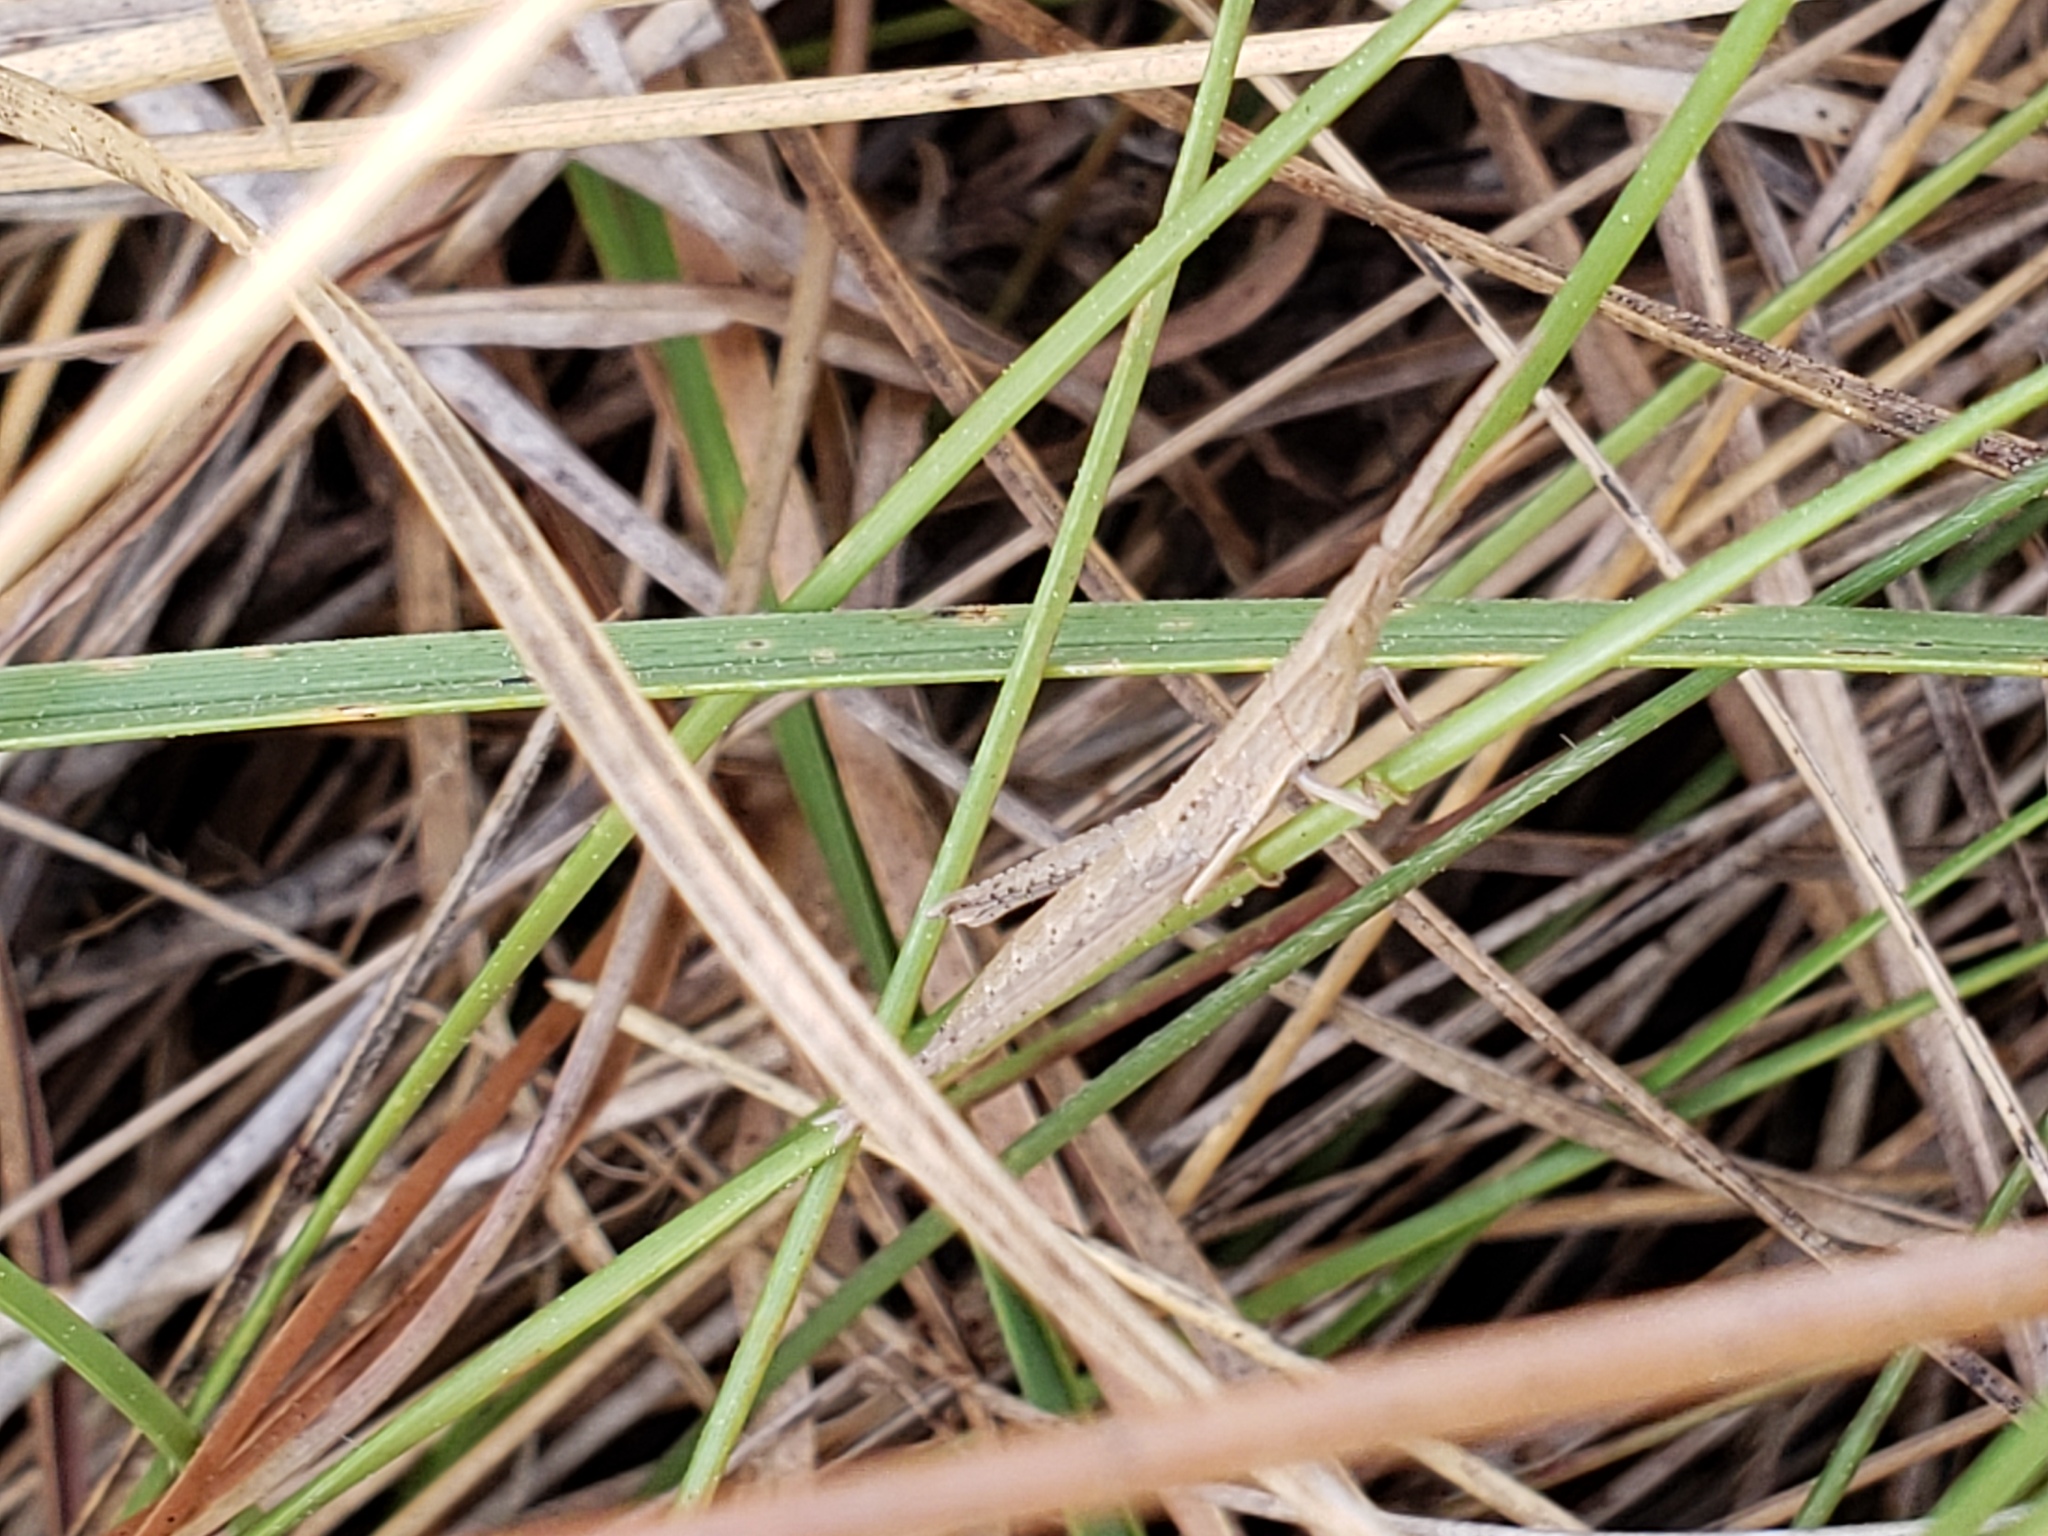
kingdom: Animalia
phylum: Arthropoda
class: Insecta
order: Orthoptera
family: Acrididae
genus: Achurum
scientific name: Achurum carinatum
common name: Long-headed toothpick grasshopper
